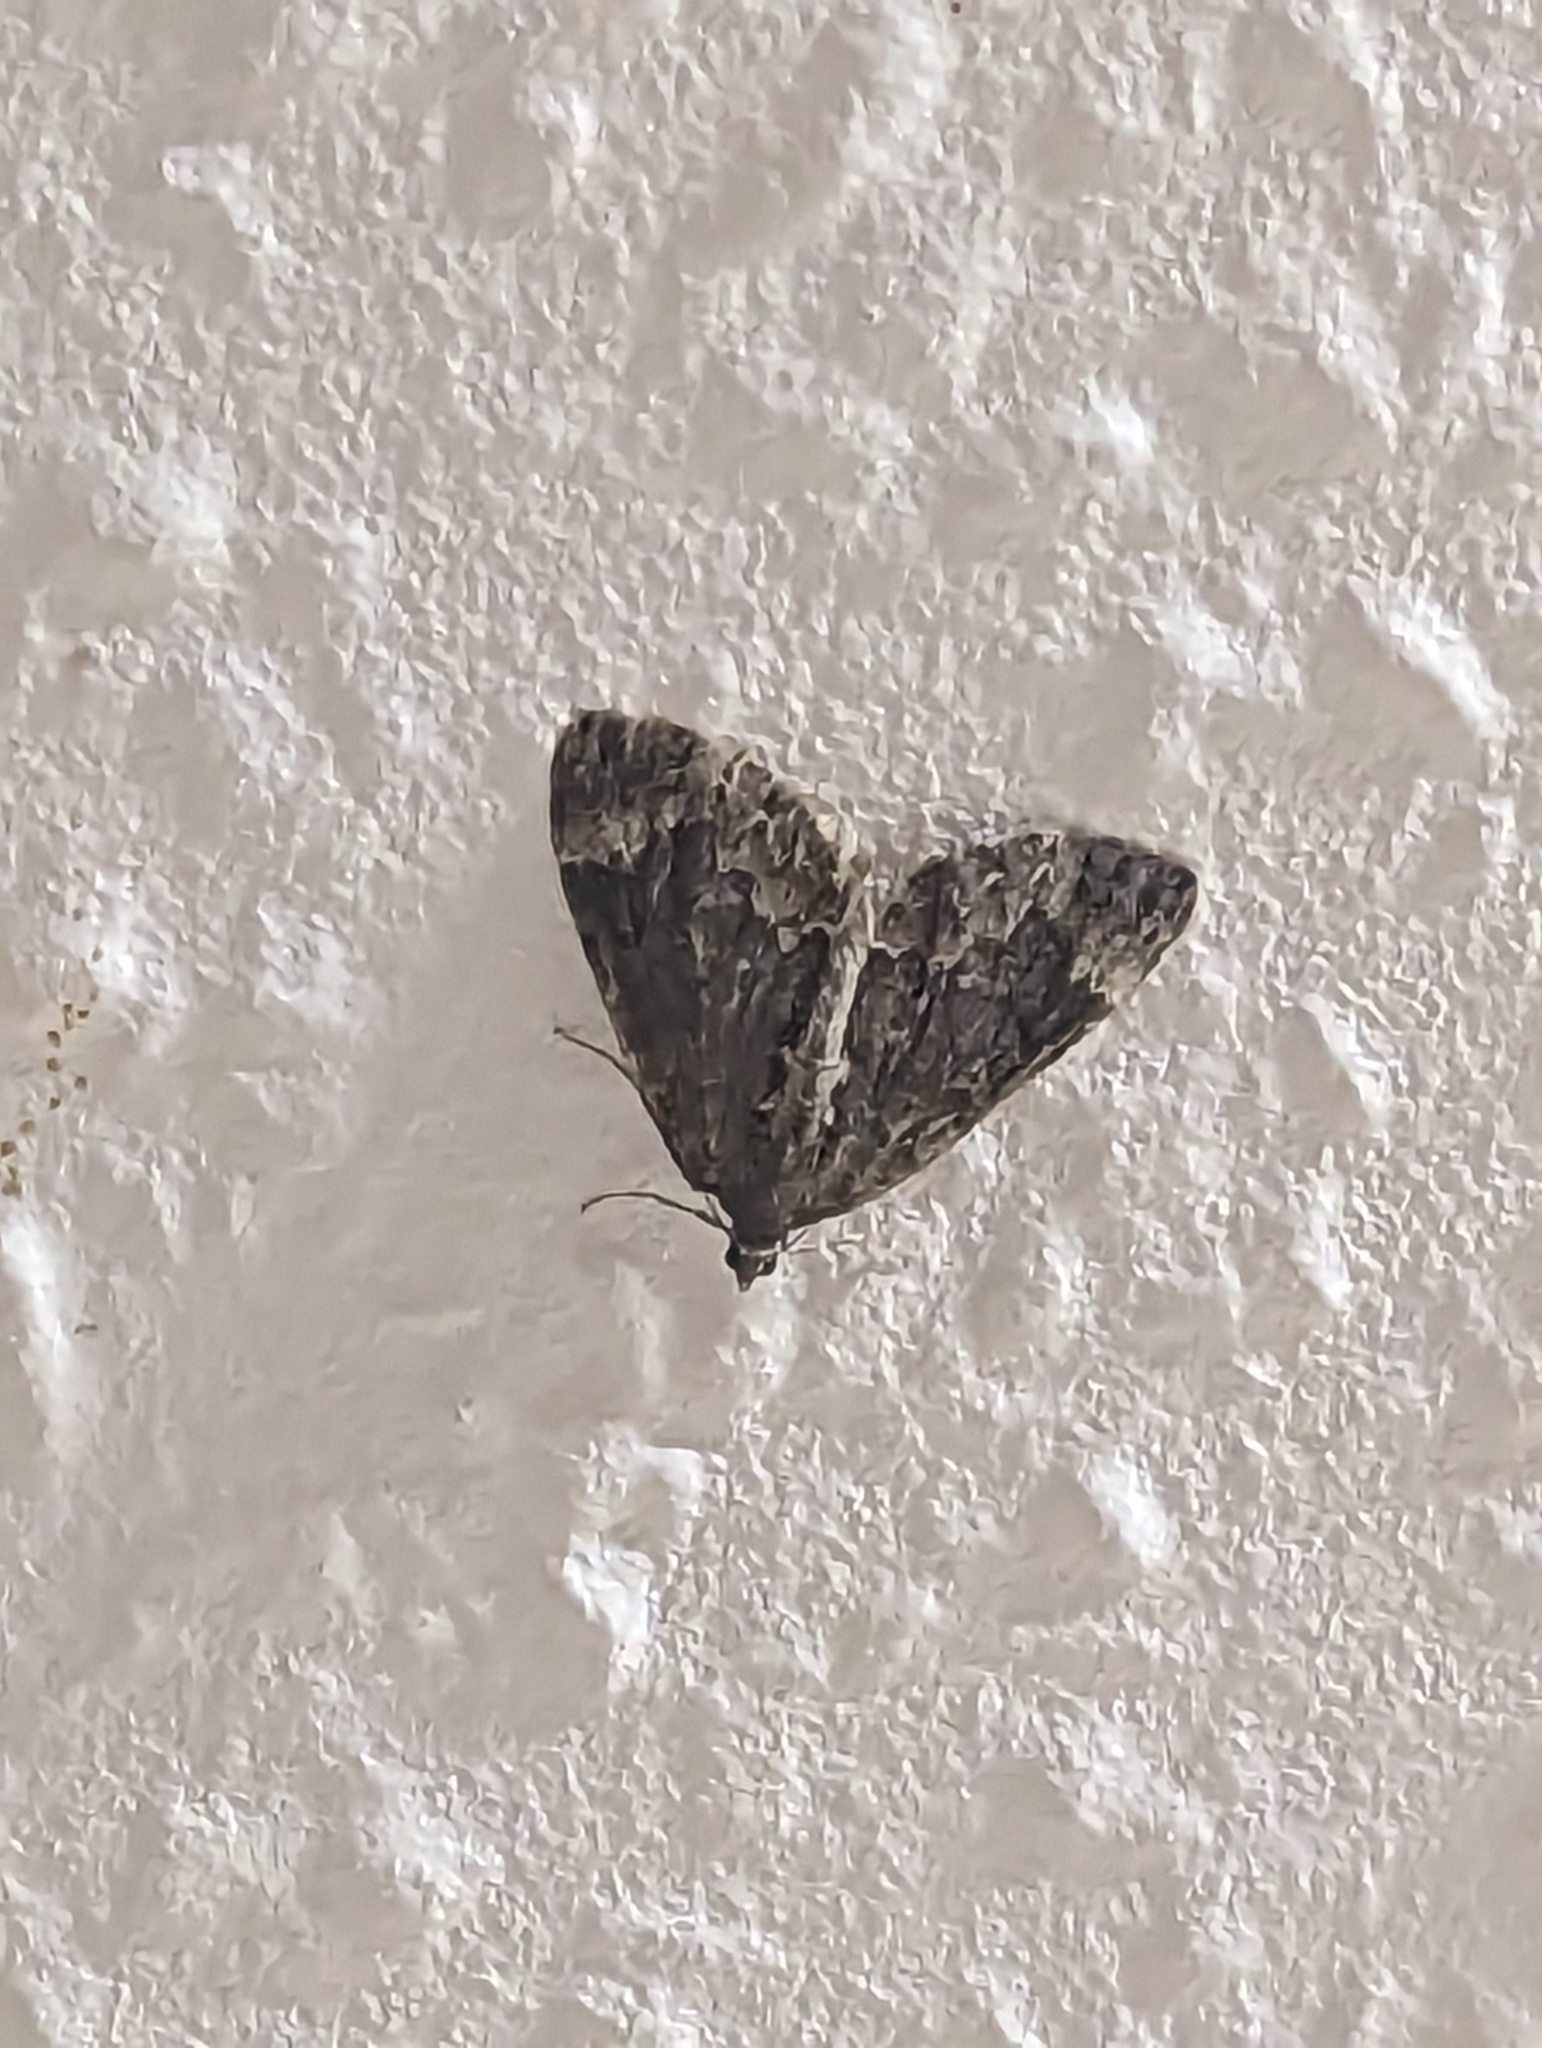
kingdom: Animalia
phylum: Arthropoda
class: Insecta
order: Lepidoptera
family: Geometridae
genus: Dysstroma
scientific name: Dysstroma truncata
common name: Common marbled carpet
